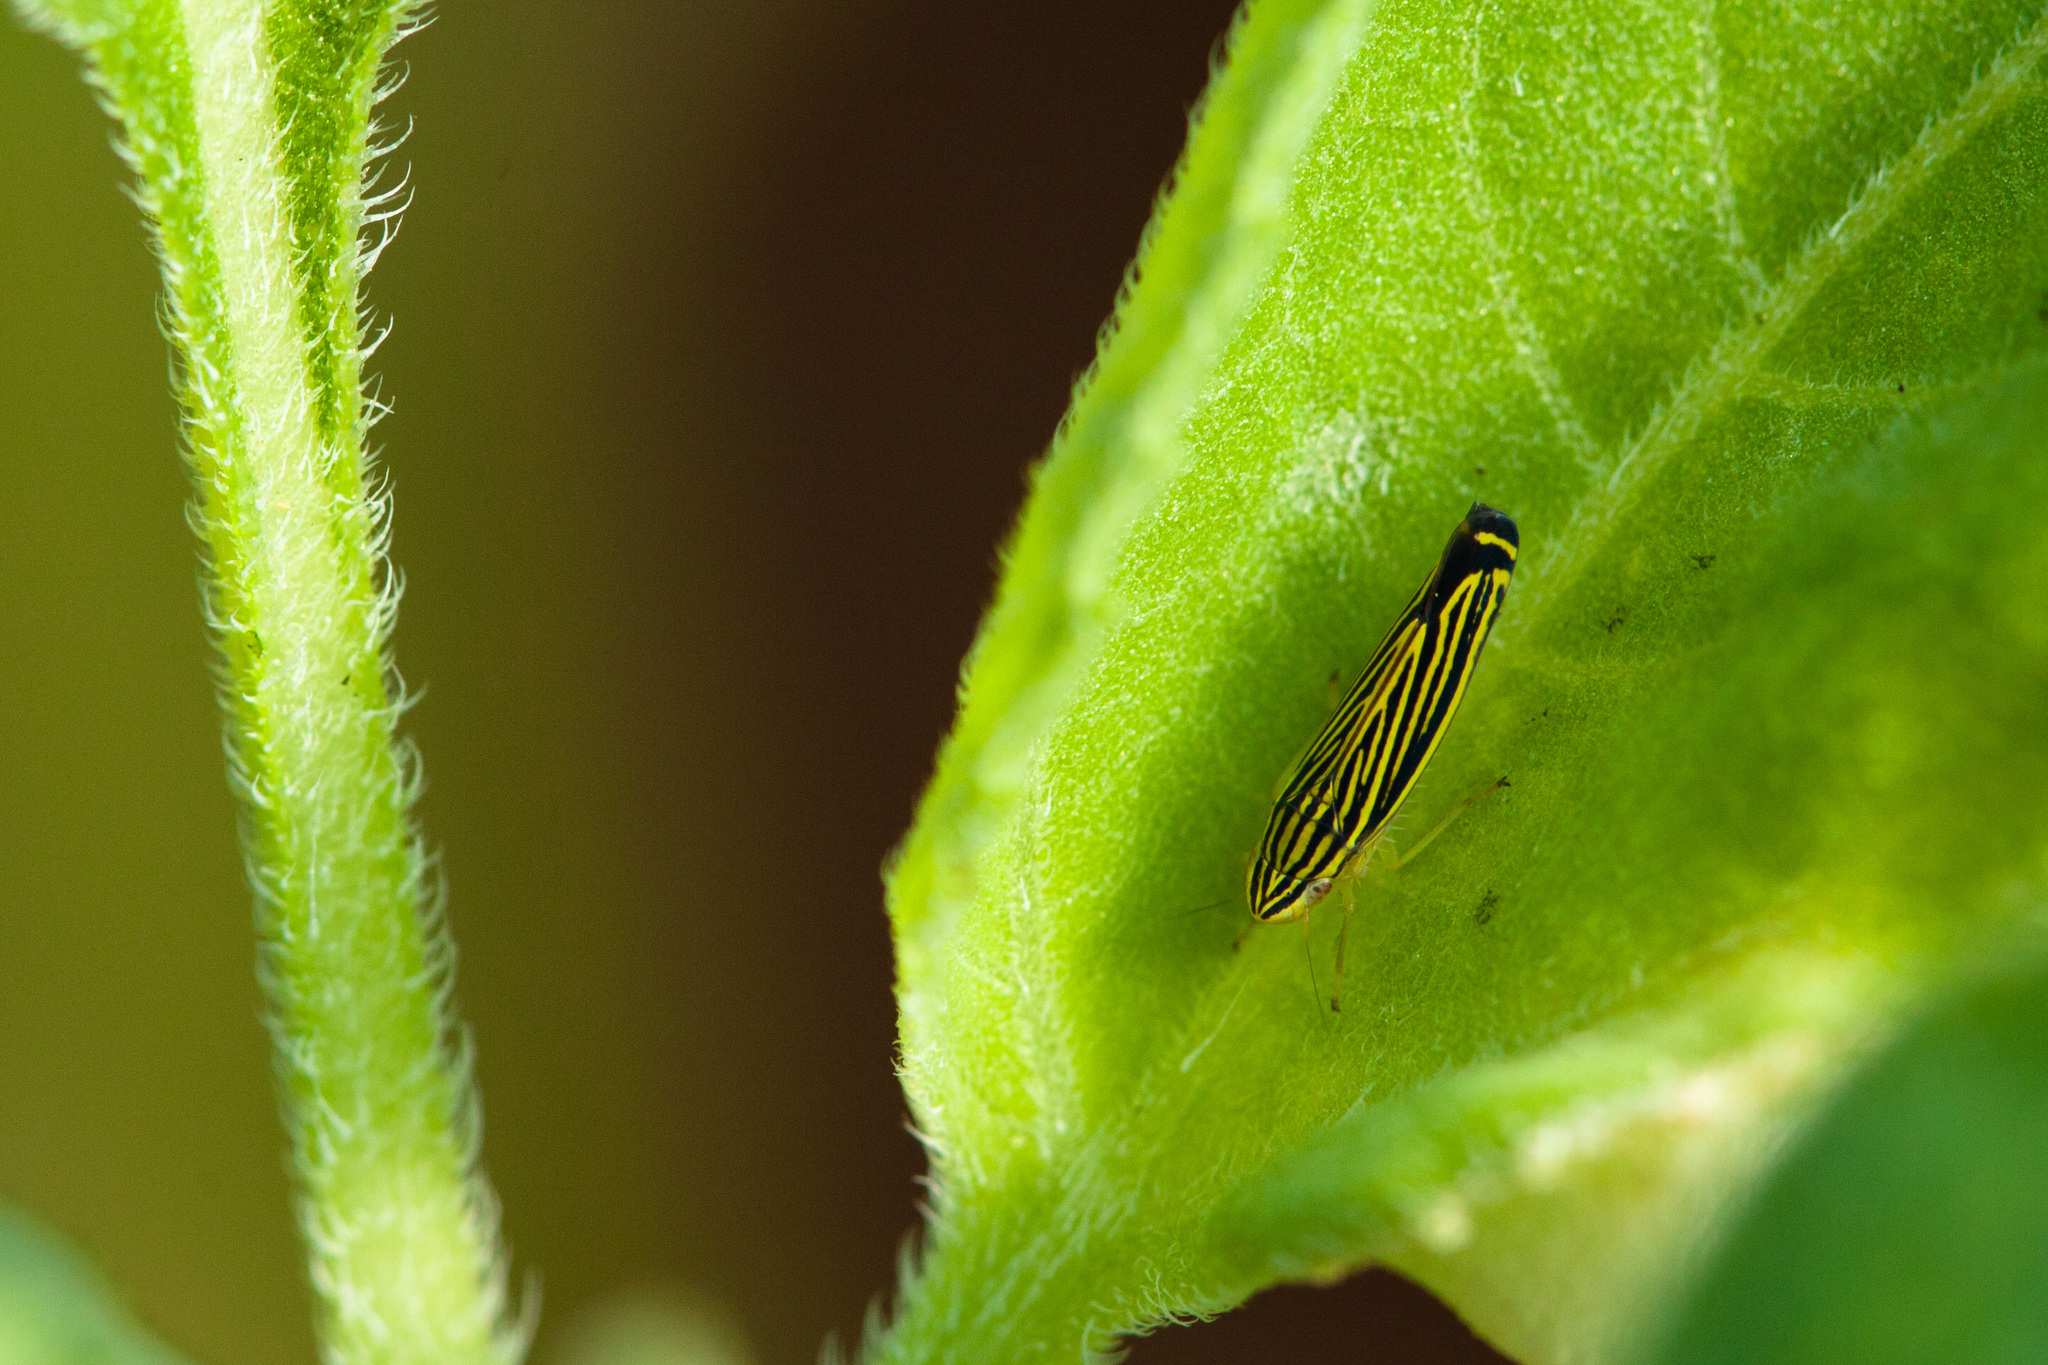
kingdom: Animalia
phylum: Arthropoda
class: Insecta
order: Hemiptera
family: Cicadellidae
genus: Sibovia
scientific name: Sibovia occatoria
